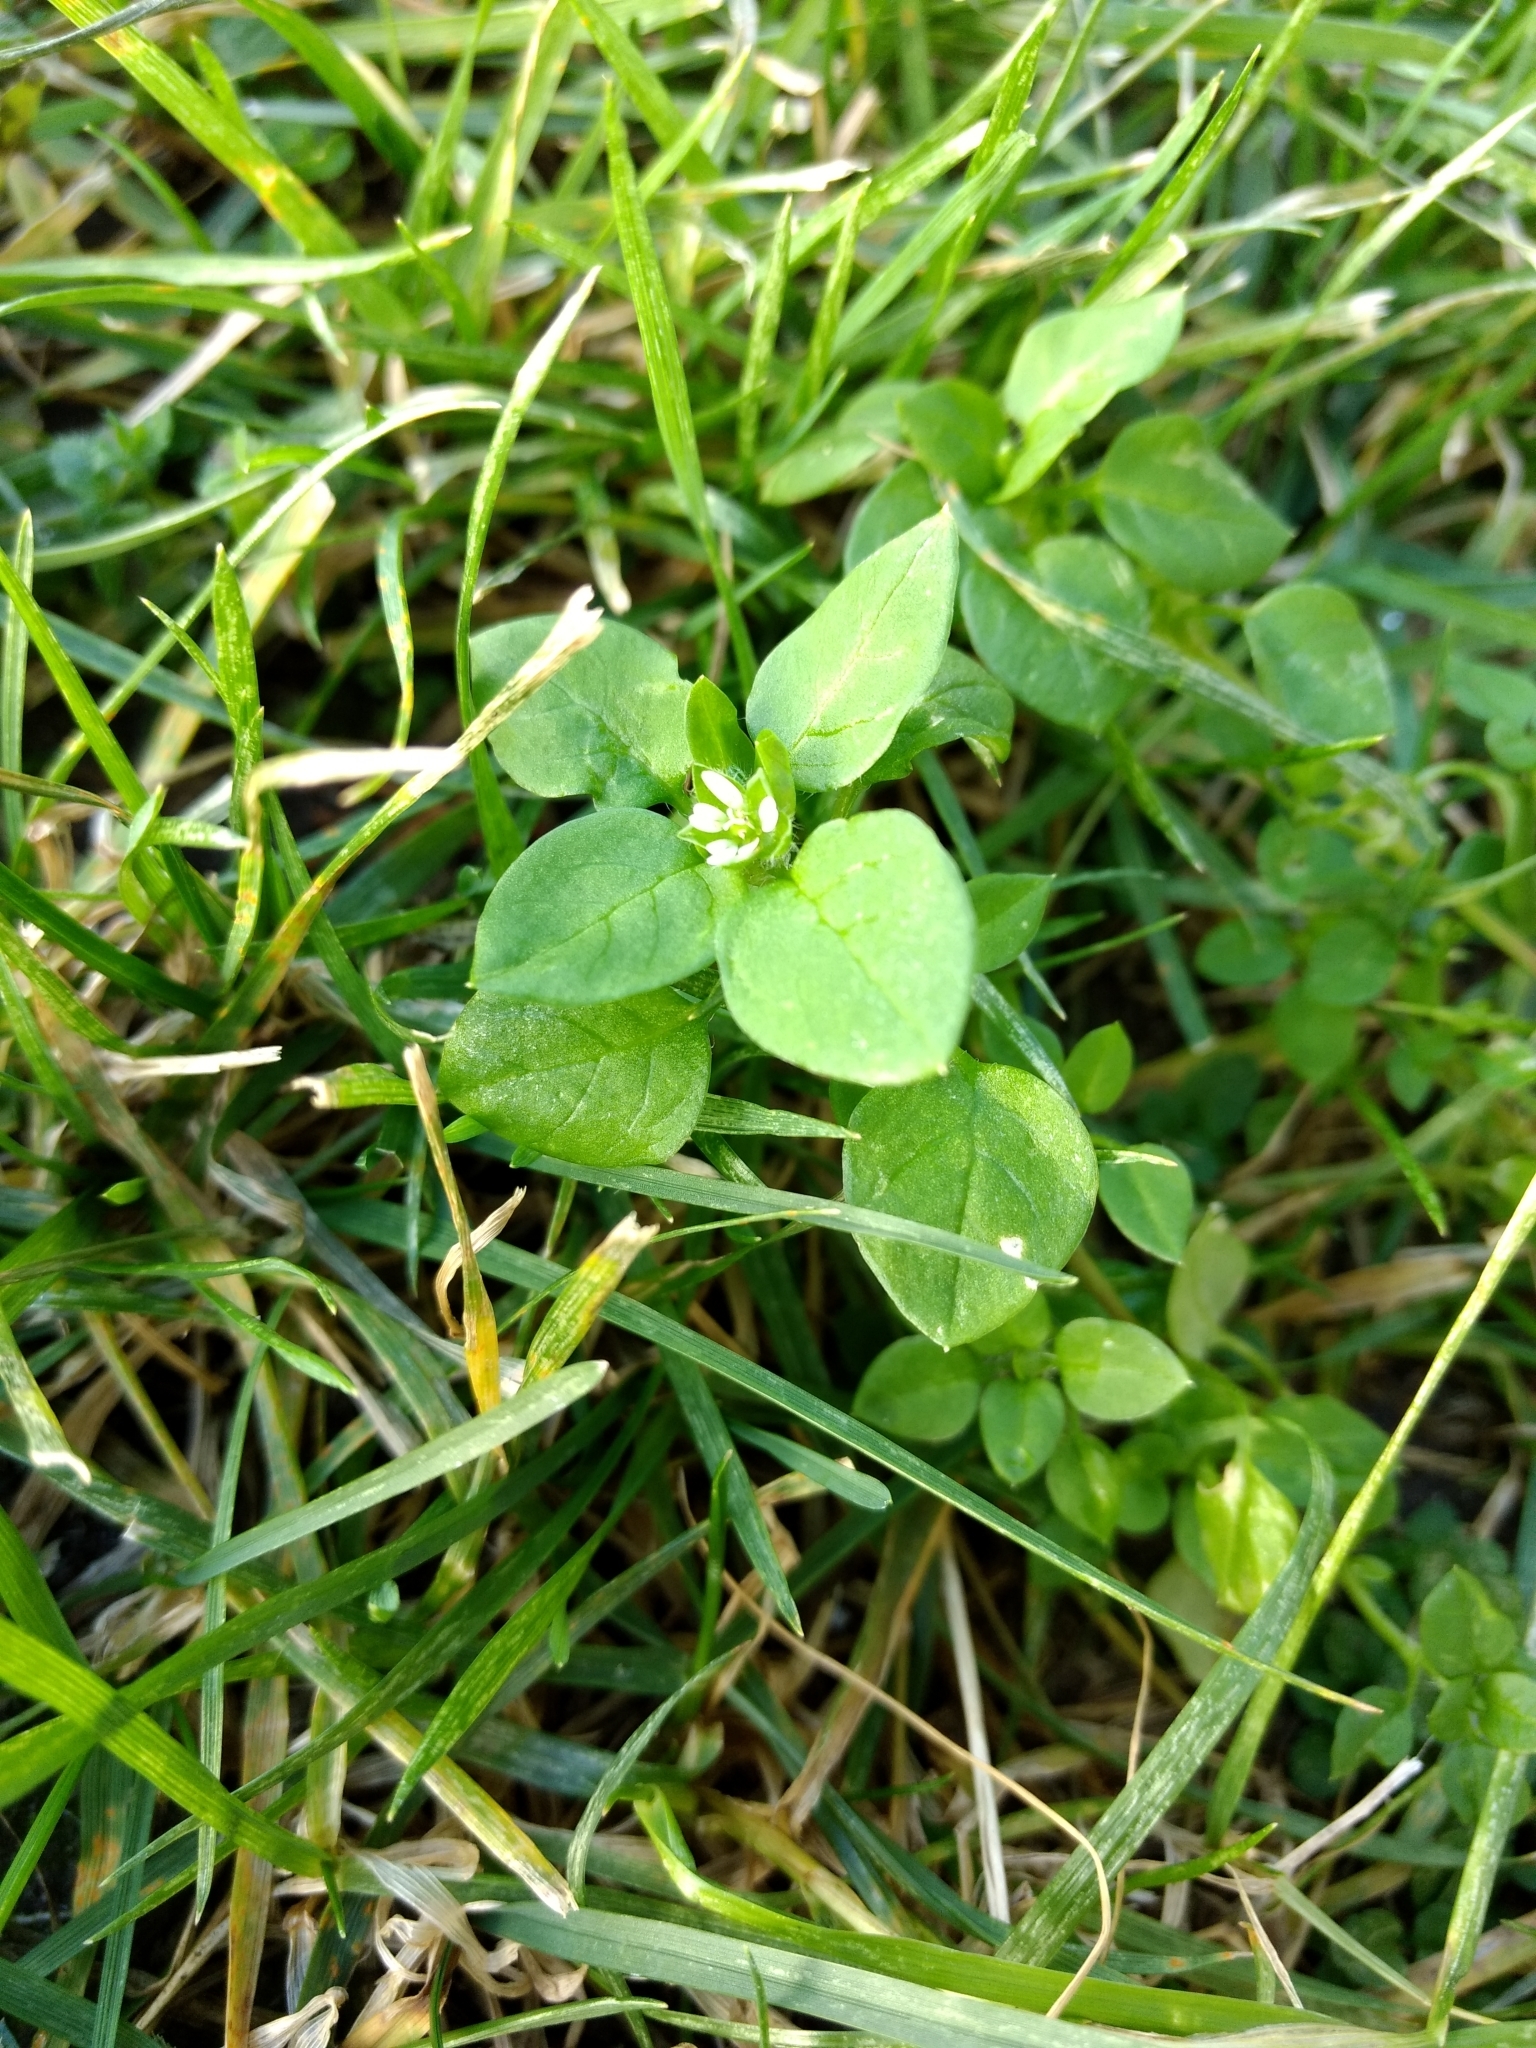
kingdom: Plantae
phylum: Tracheophyta
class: Magnoliopsida
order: Caryophyllales
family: Caryophyllaceae
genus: Stellaria
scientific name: Stellaria media
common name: Common chickweed
